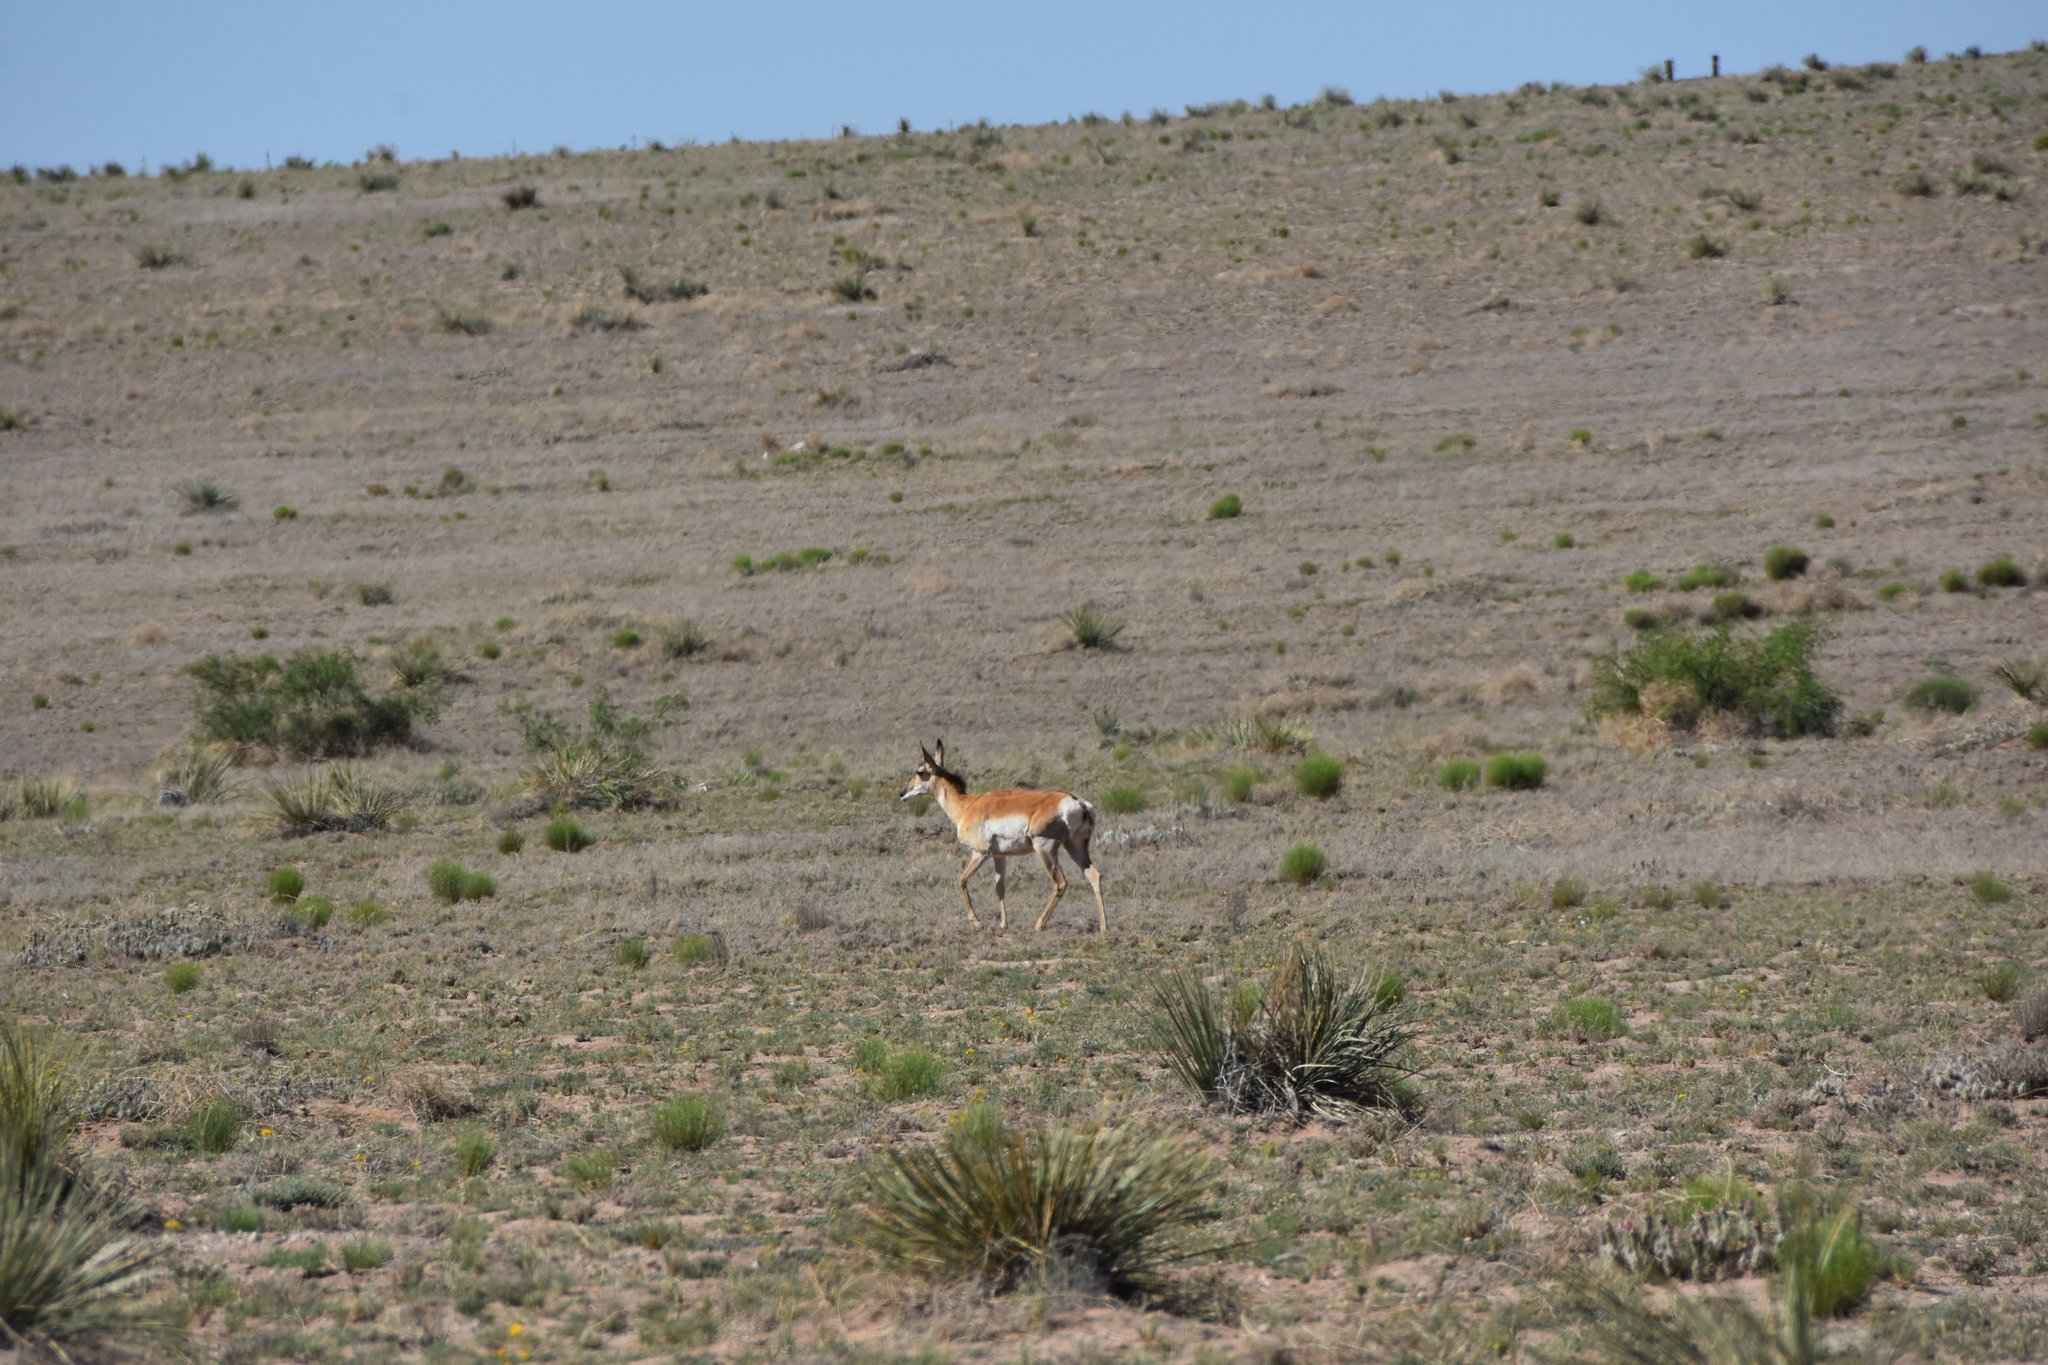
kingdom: Animalia
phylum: Chordata
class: Mammalia
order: Artiodactyla
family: Antilocapridae
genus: Antilocapra
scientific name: Antilocapra americana
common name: Pronghorn
